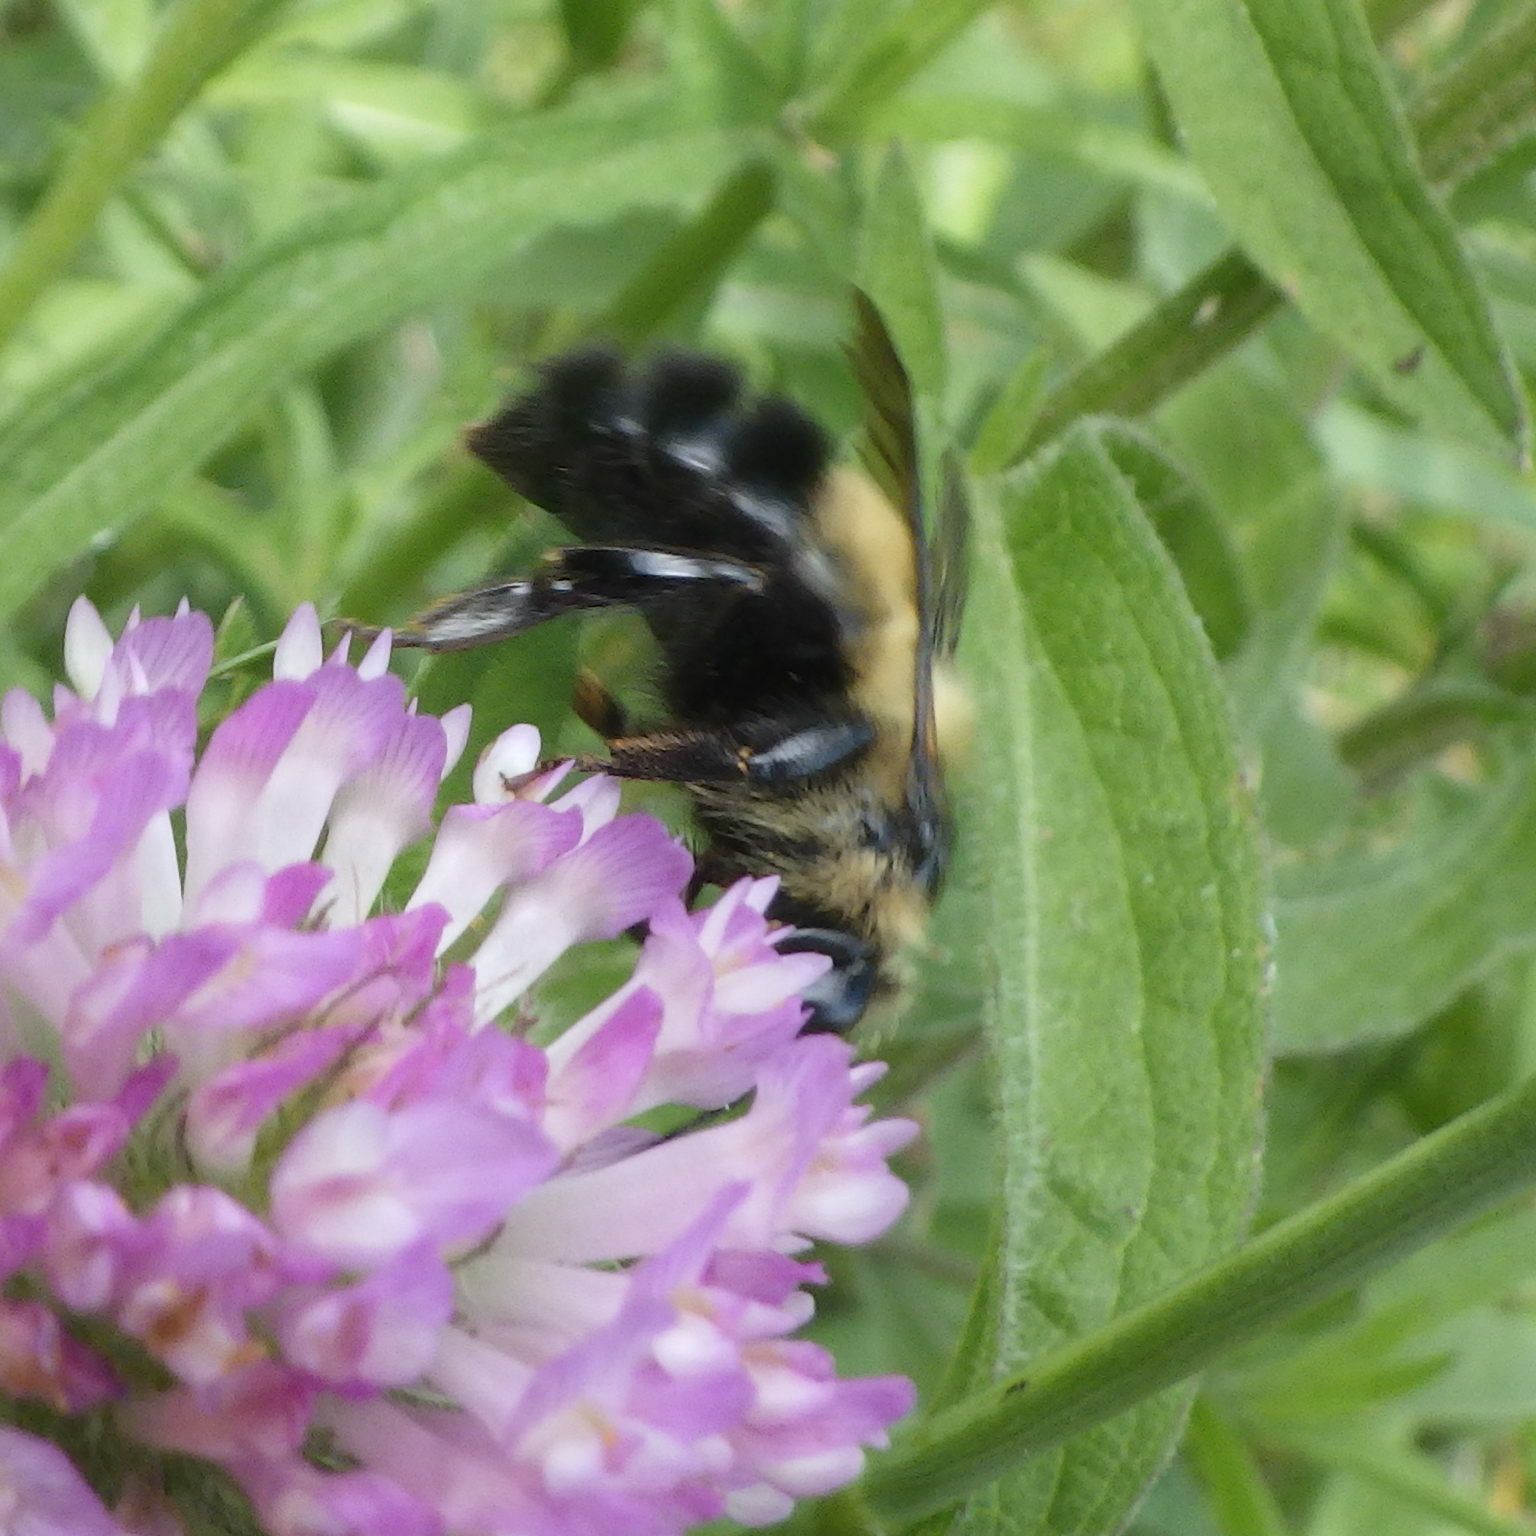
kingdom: Animalia
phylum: Arthropoda
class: Insecta
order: Hymenoptera
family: Apidae
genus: Pyrobombus
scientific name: Pyrobombus
